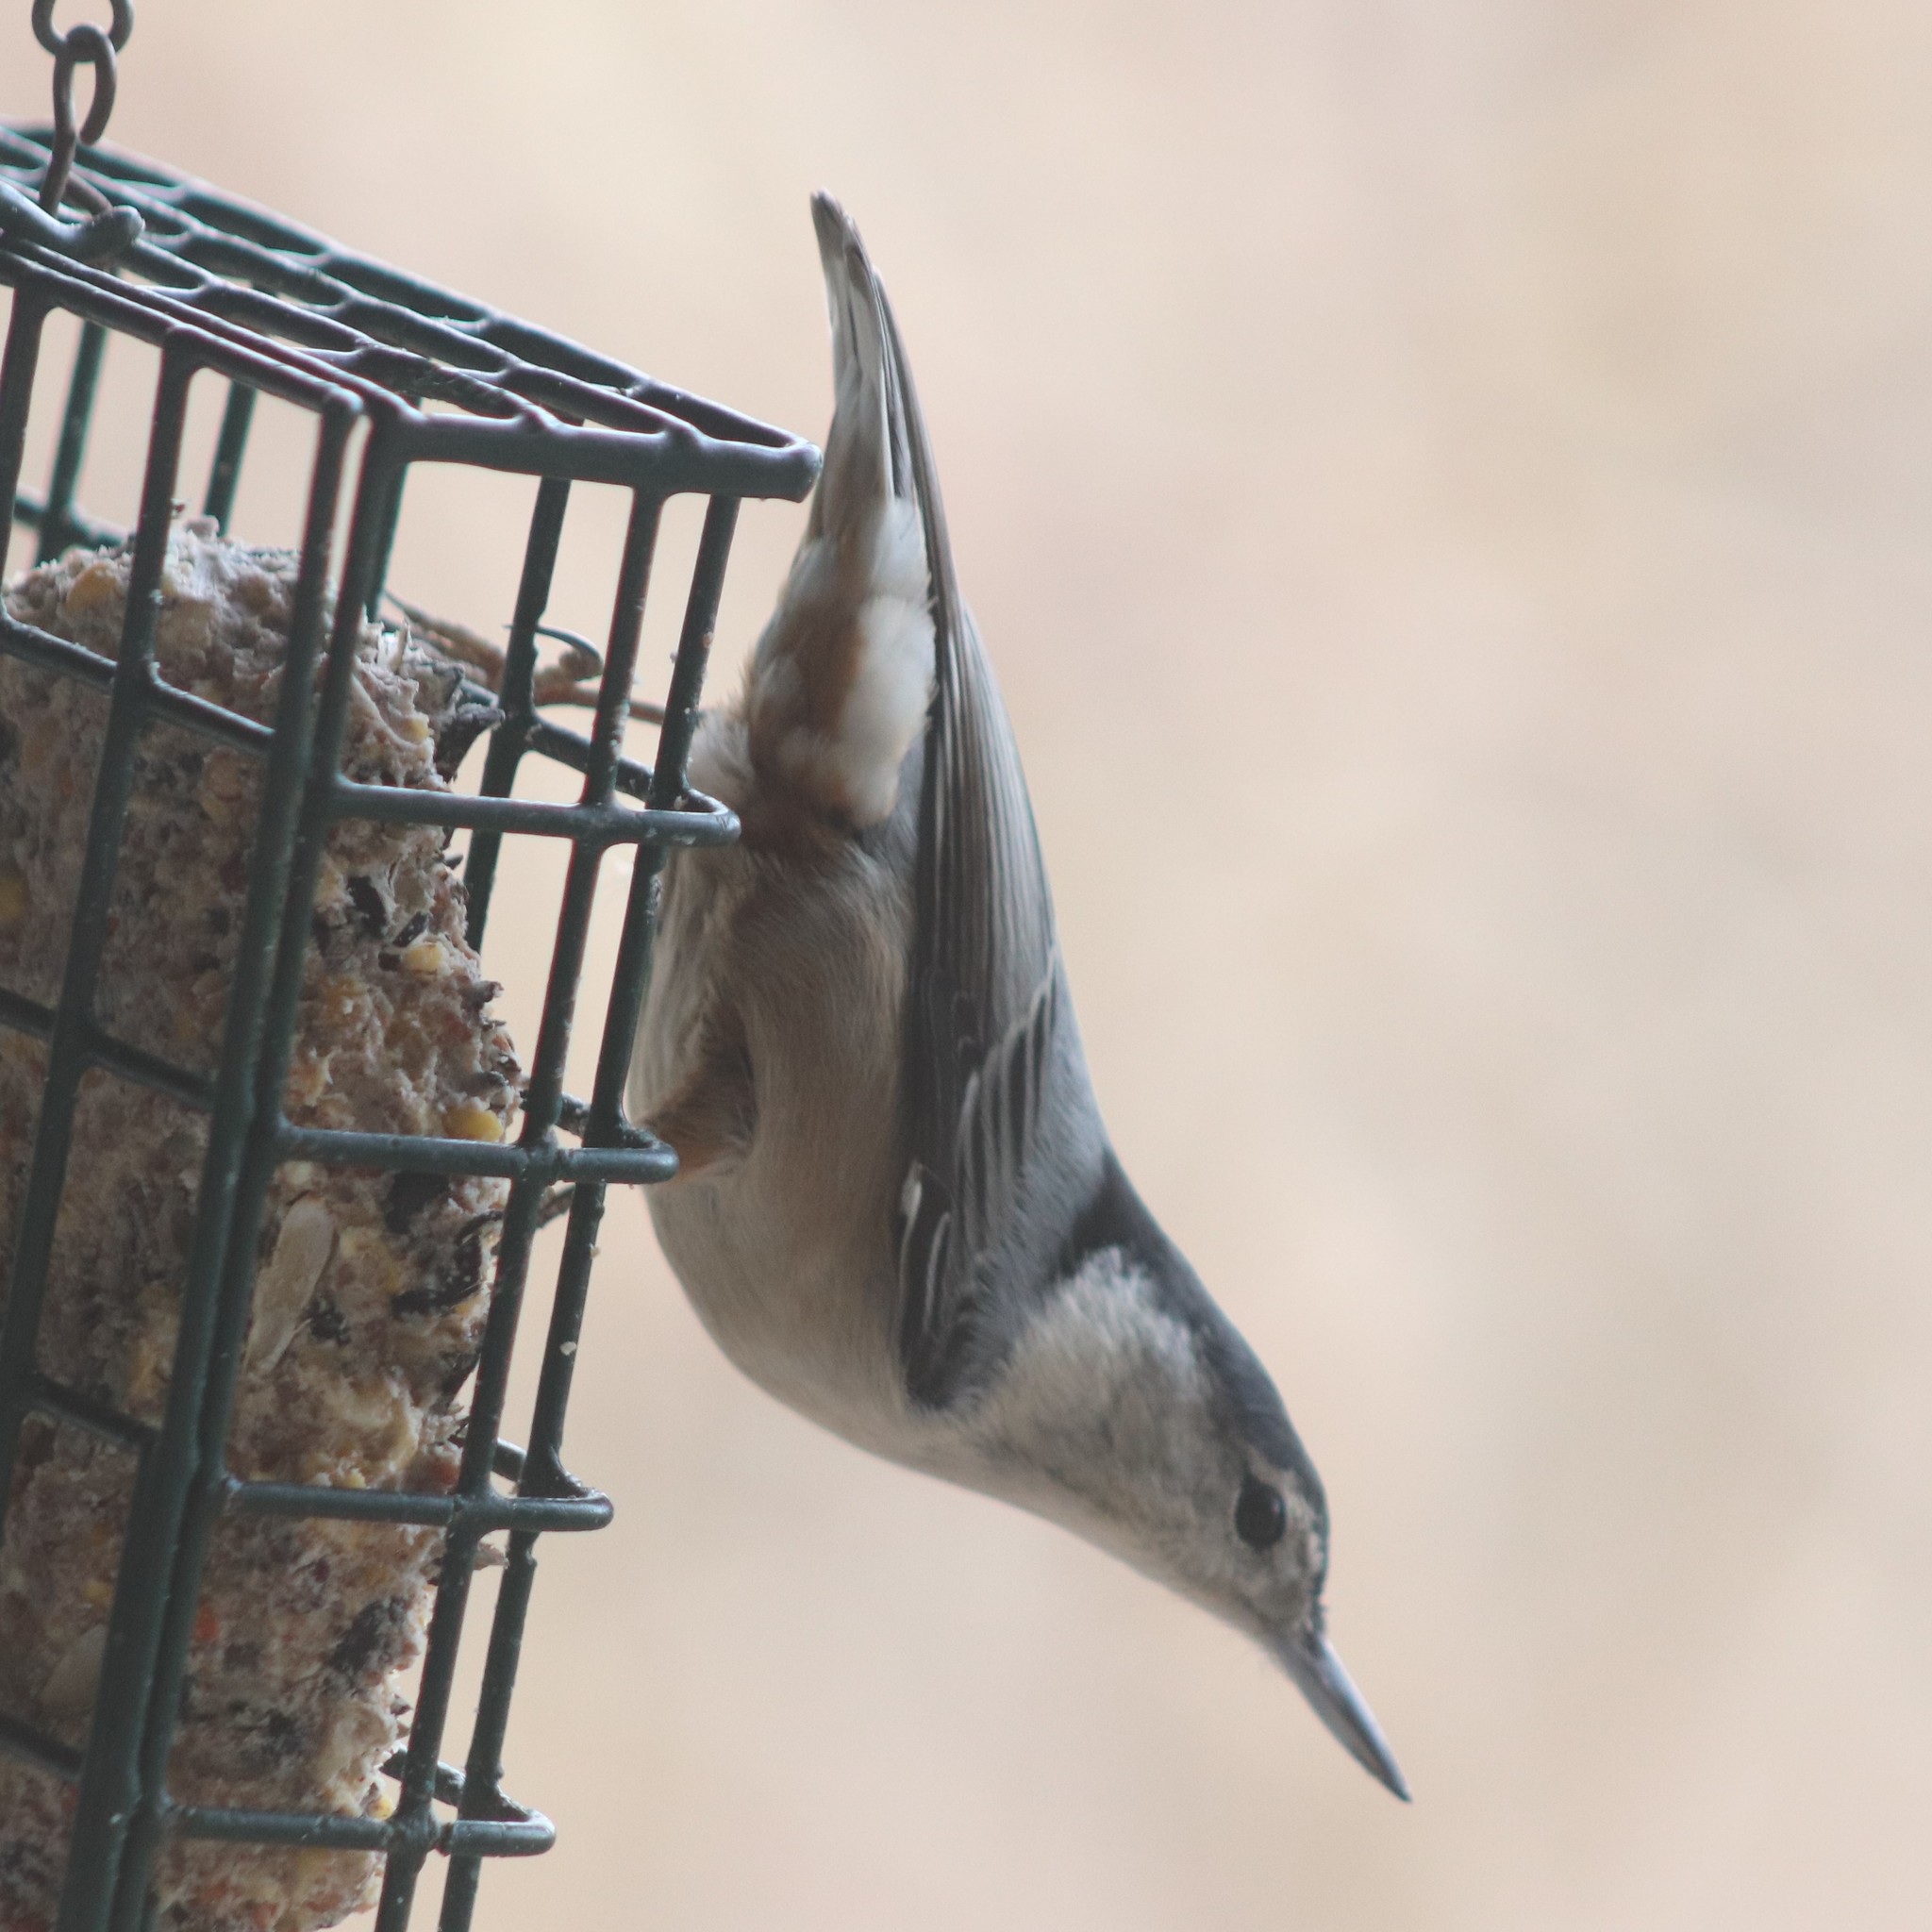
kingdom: Animalia
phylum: Chordata
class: Aves
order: Passeriformes
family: Sittidae
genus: Sitta
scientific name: Sitta carolinensis
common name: White-breasted nuthatch
